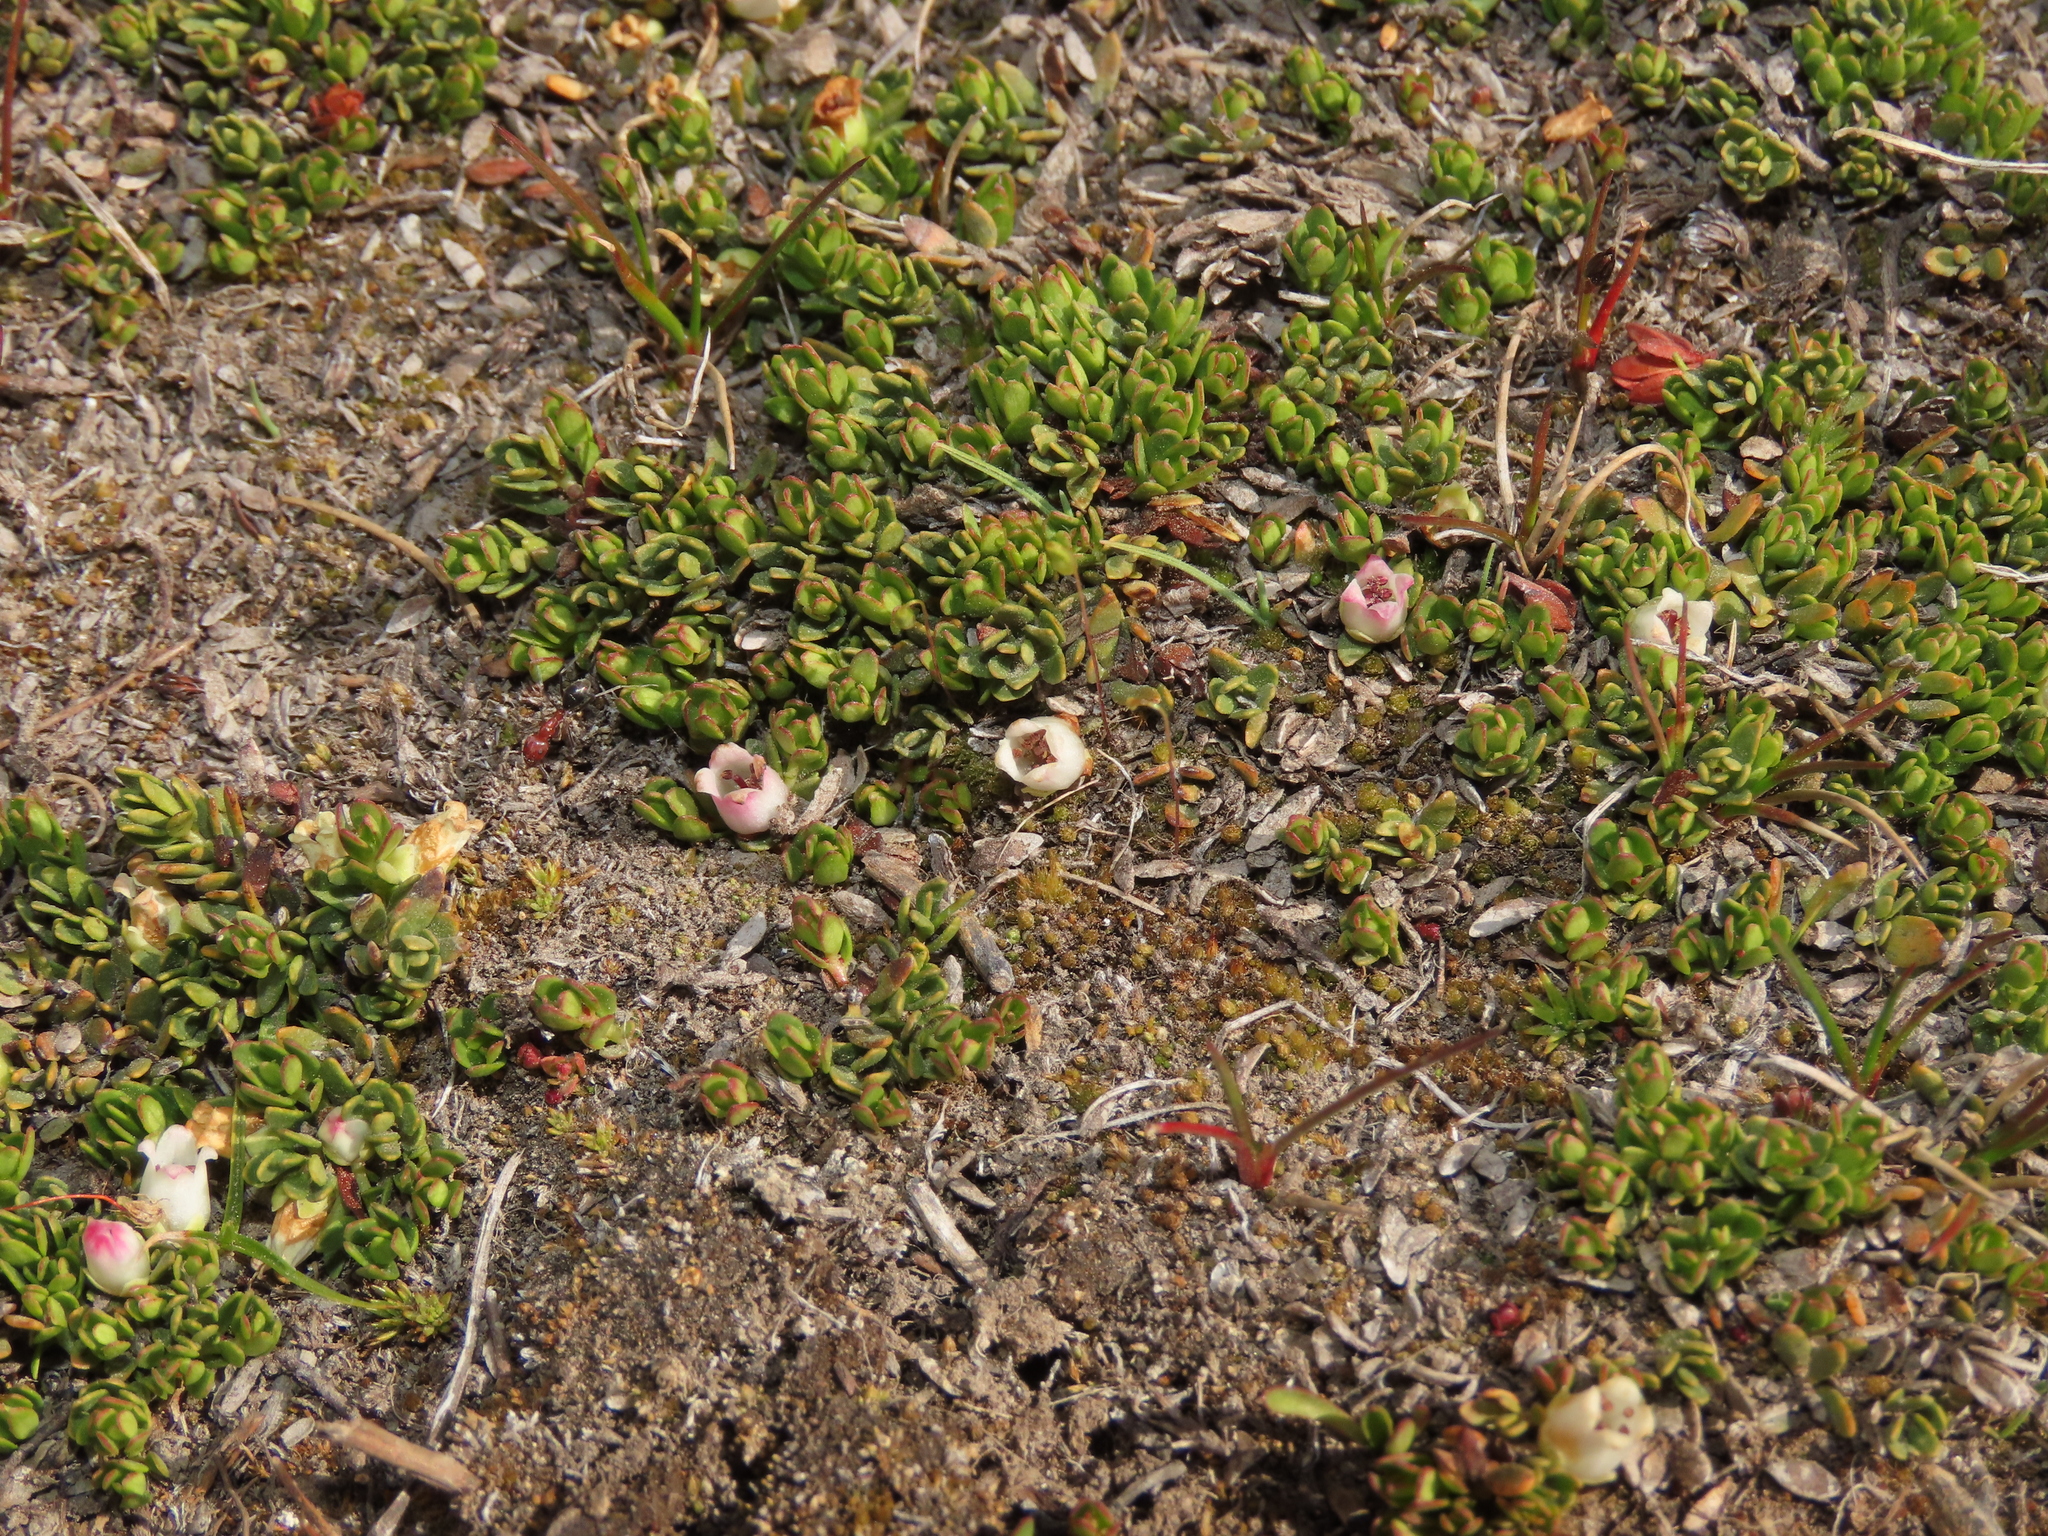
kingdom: Plantae
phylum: Tracheophyta
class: Magnoliopsida
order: Ericales
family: Ericaceae
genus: Gaultheria
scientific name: Gaultheria caespitosa
